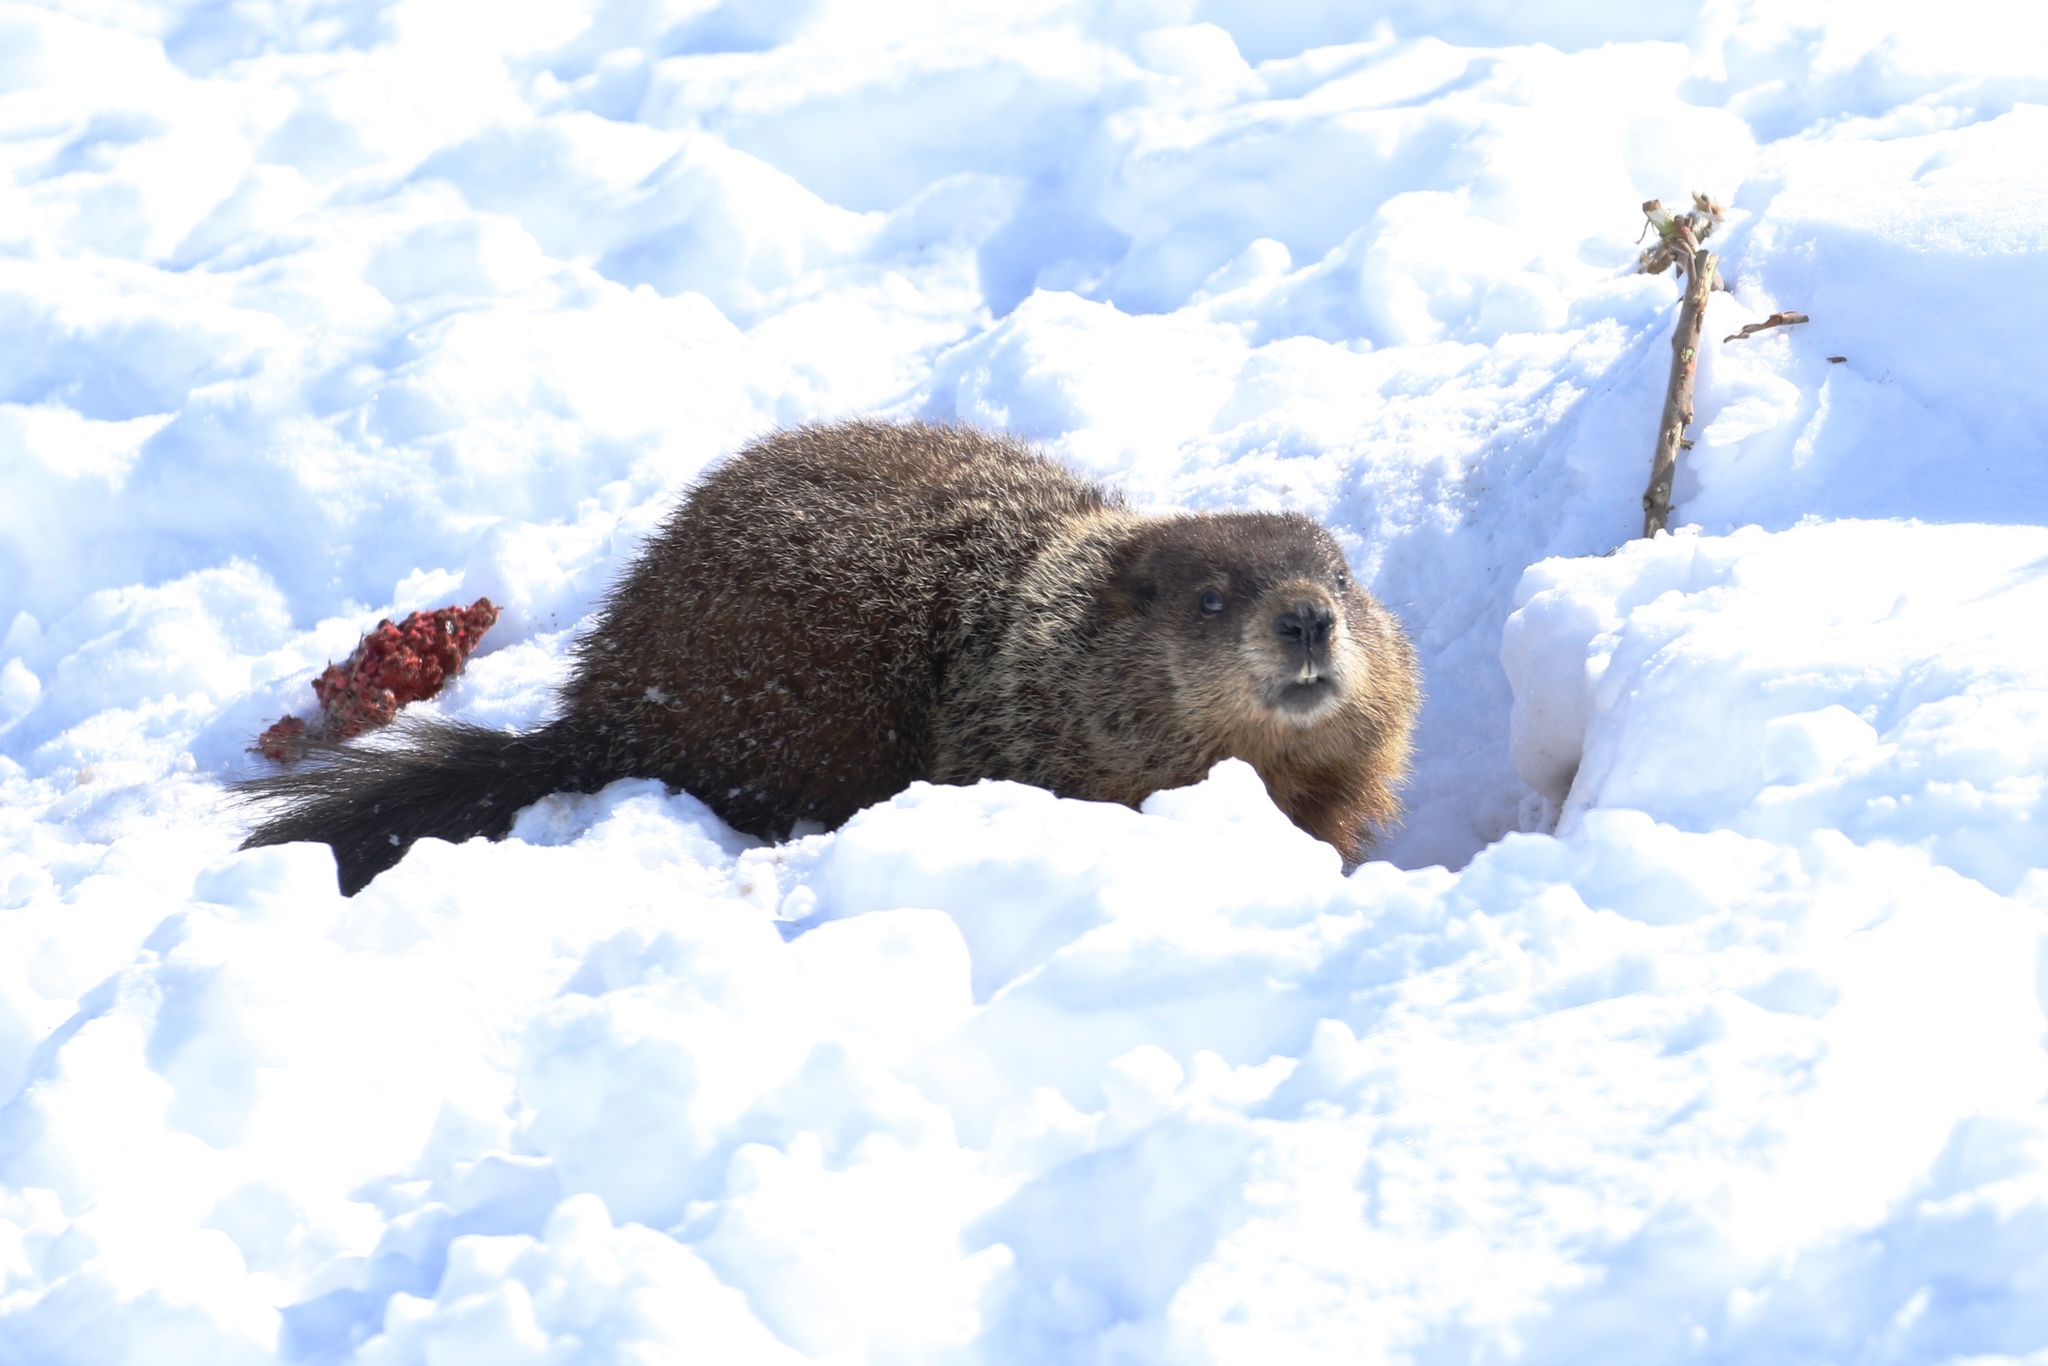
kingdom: Animalia
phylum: Chordata
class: Mammalia
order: Rodentia
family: Sciuridae
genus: Marmota
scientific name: Marmota monax
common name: Groundhog
